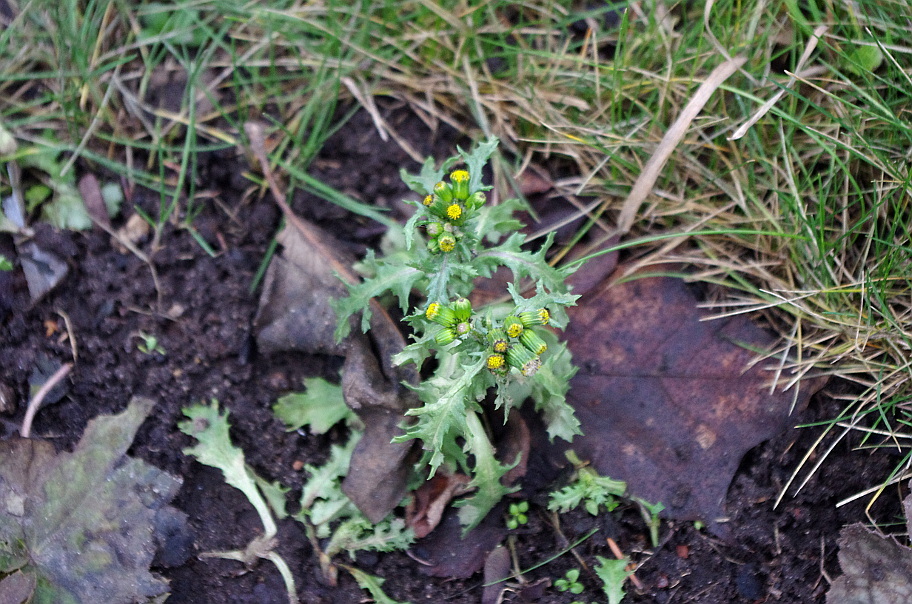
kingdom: Plantae
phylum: Tracheophyta
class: Magnoliopsida
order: Asterales
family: Asteraceae
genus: Senecio
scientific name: Senecio vulgaris
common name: Old-man-in-the-spring
